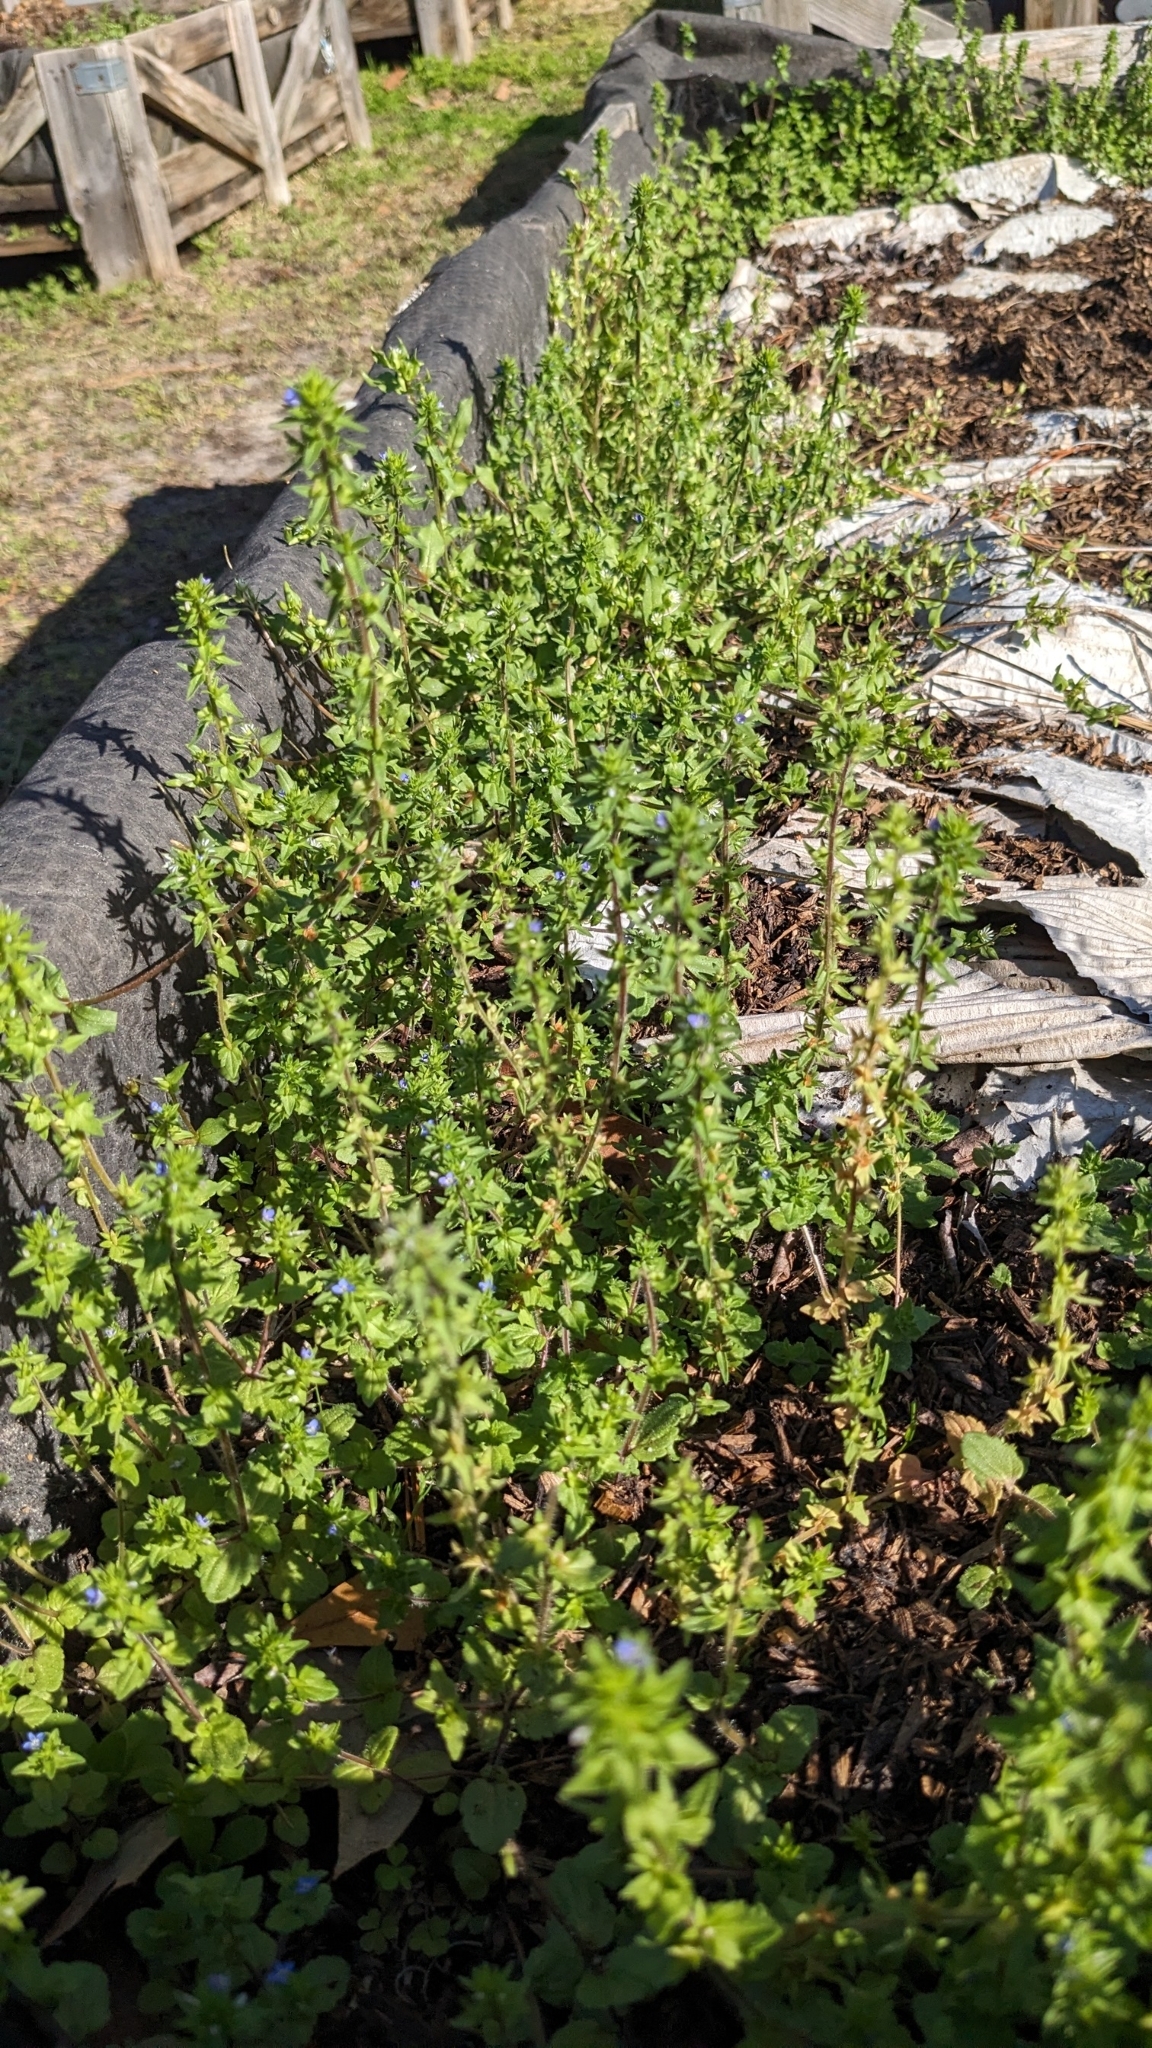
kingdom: Plantae
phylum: Tracheophyta
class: Magnoliopsida
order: Lamiales
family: Plantaginaceae
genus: Veronica
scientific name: Veronica arvensis
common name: Corn speedwell
